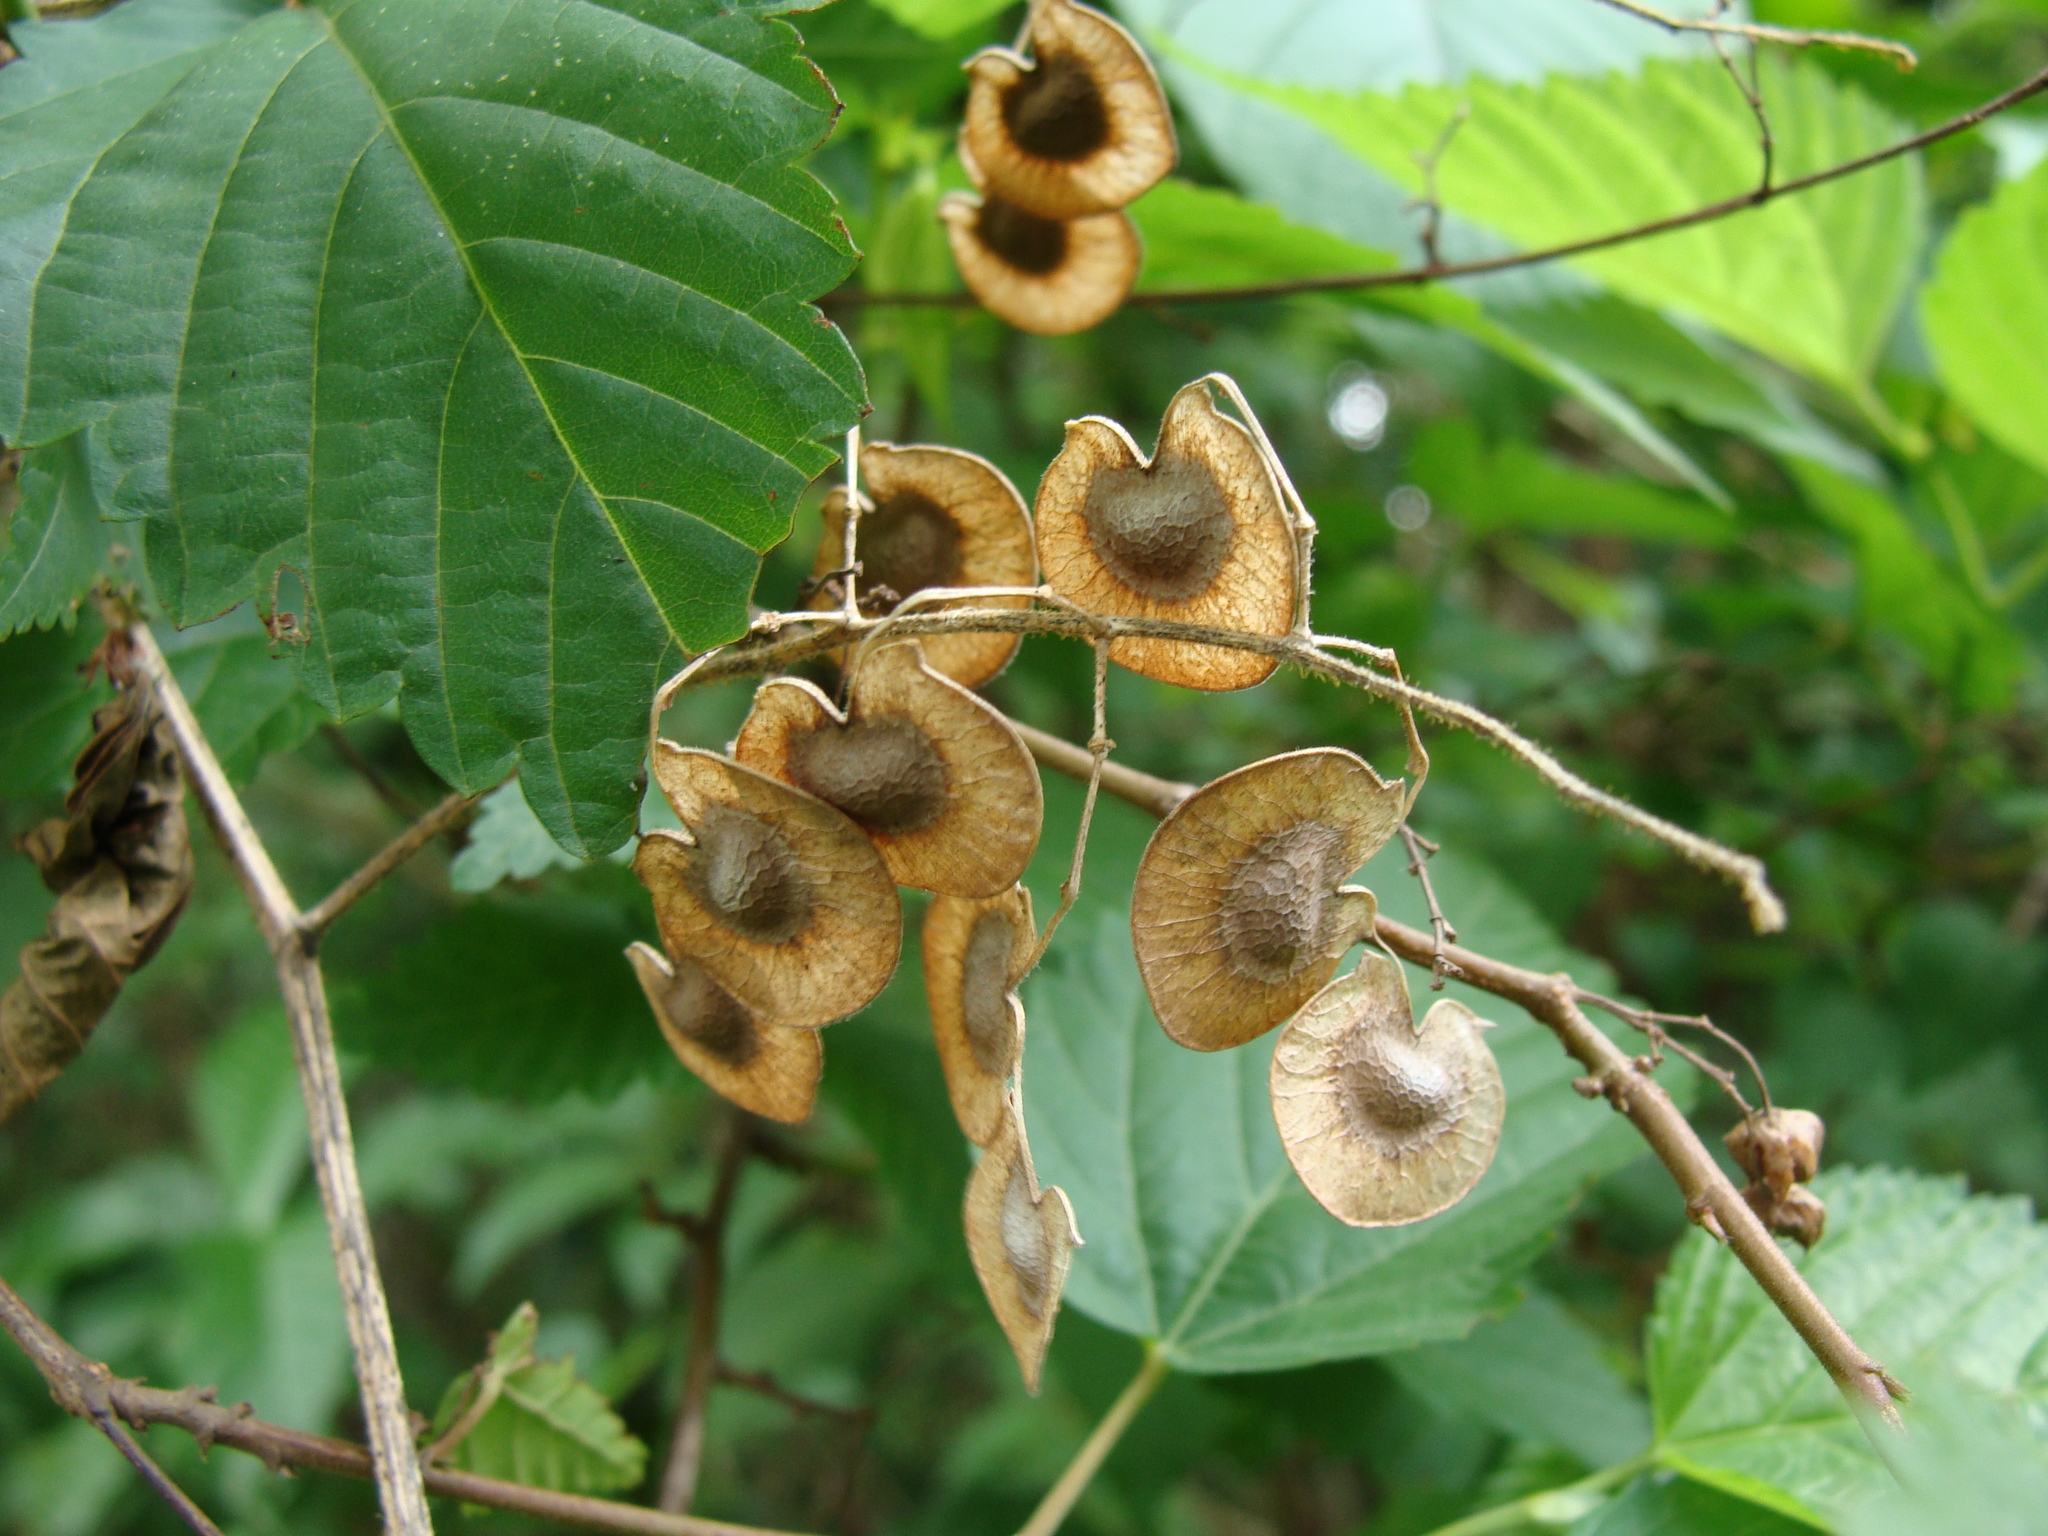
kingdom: Plantae
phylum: Tracheophyta
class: Magnoliopsida
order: Fabales
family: Fabaceae
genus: Desmodium
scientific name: Desmodium infractum
